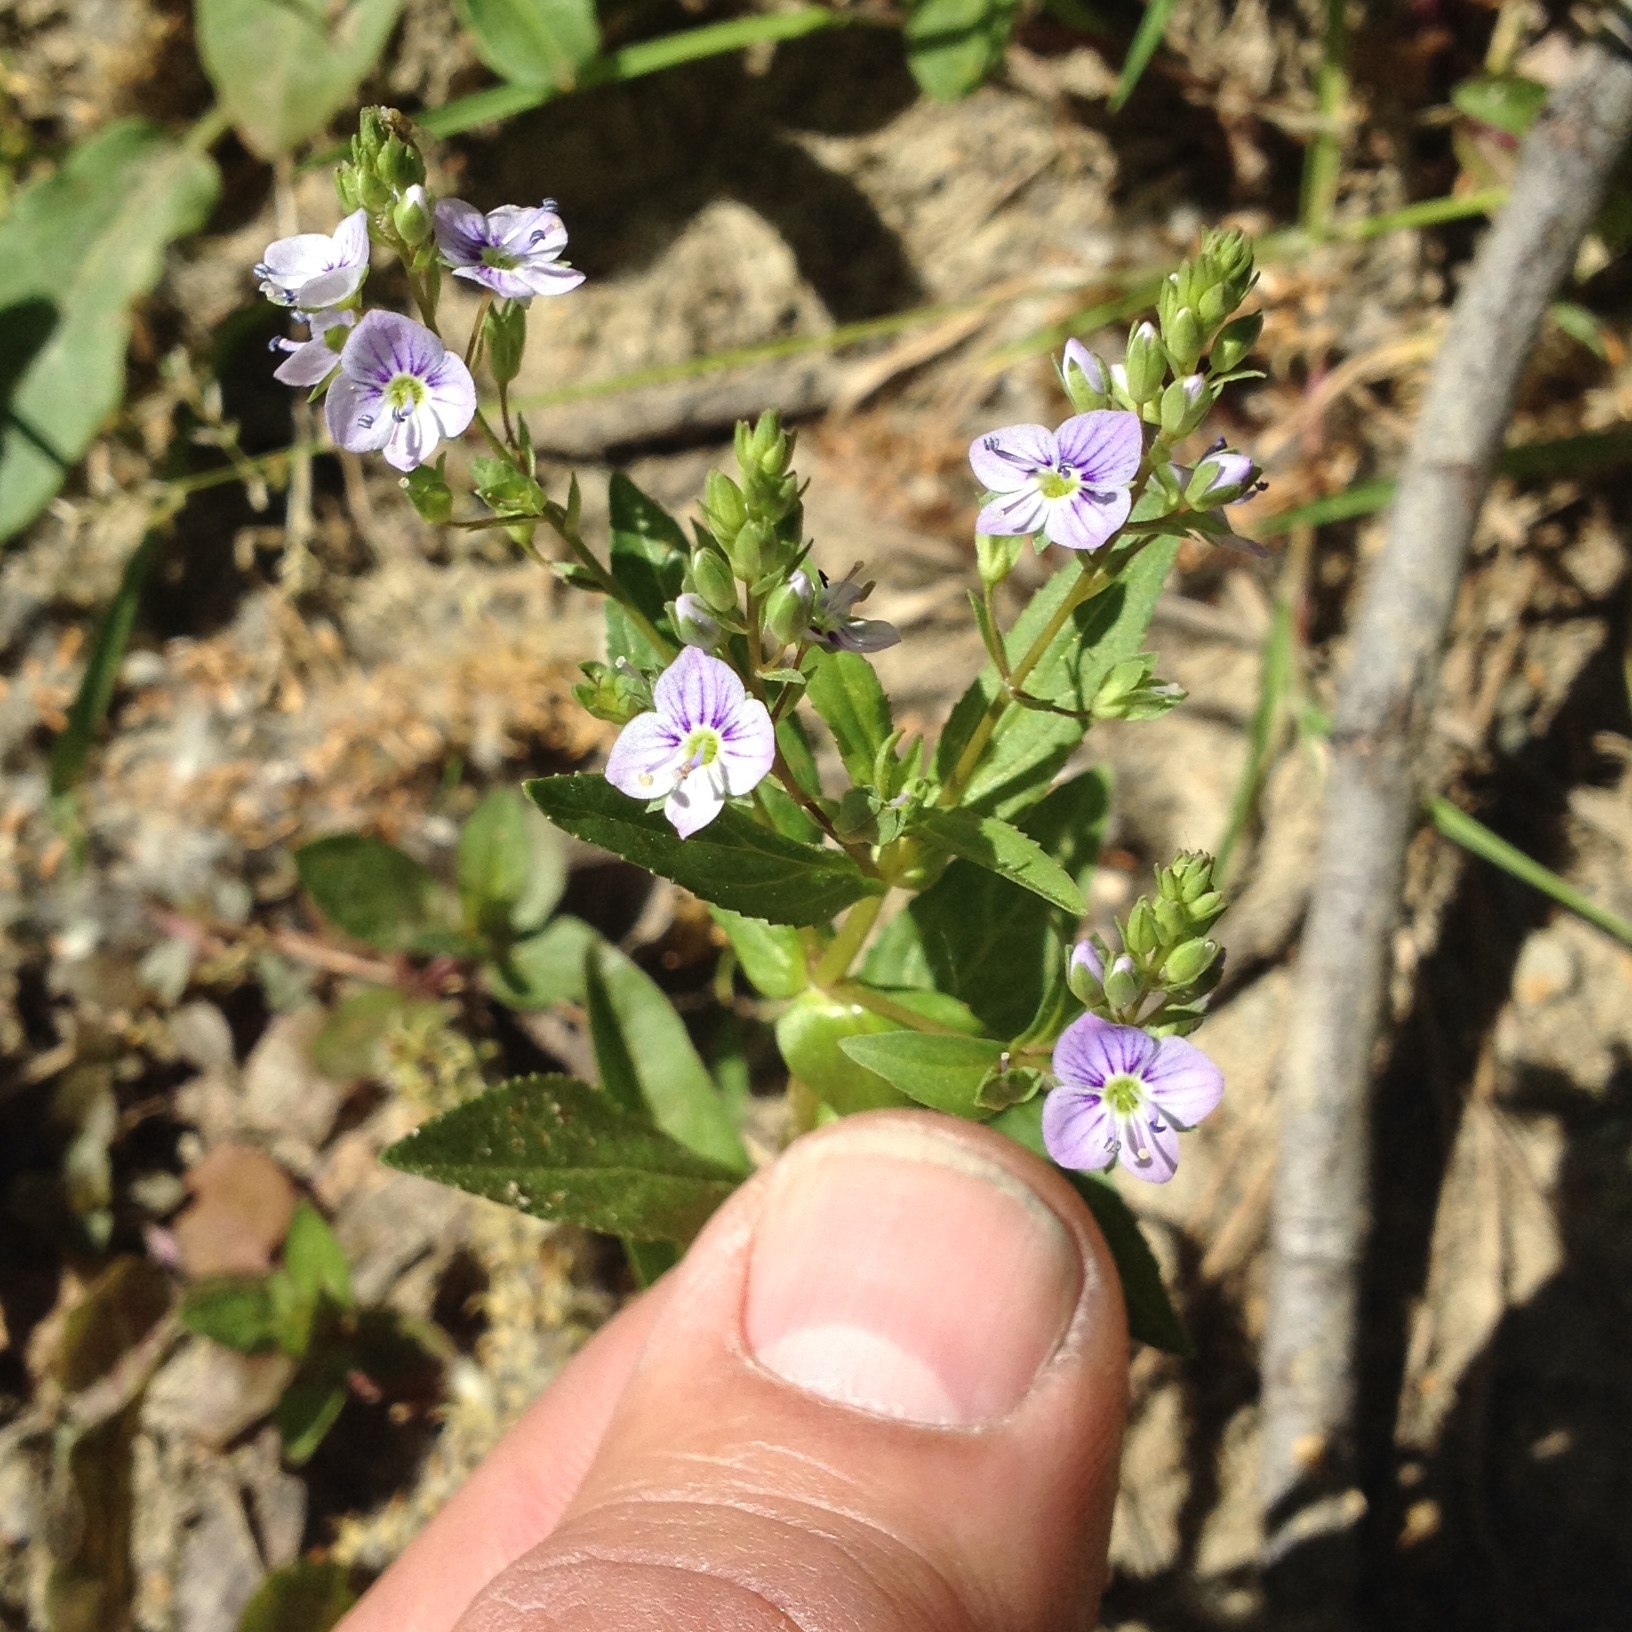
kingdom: Plantae
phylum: Tracheophyta
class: Magnoliopsida
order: Lamiales
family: Plantaginaceae
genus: Veronica
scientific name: Veronica anagallis-aquatica
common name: Water speedwell
